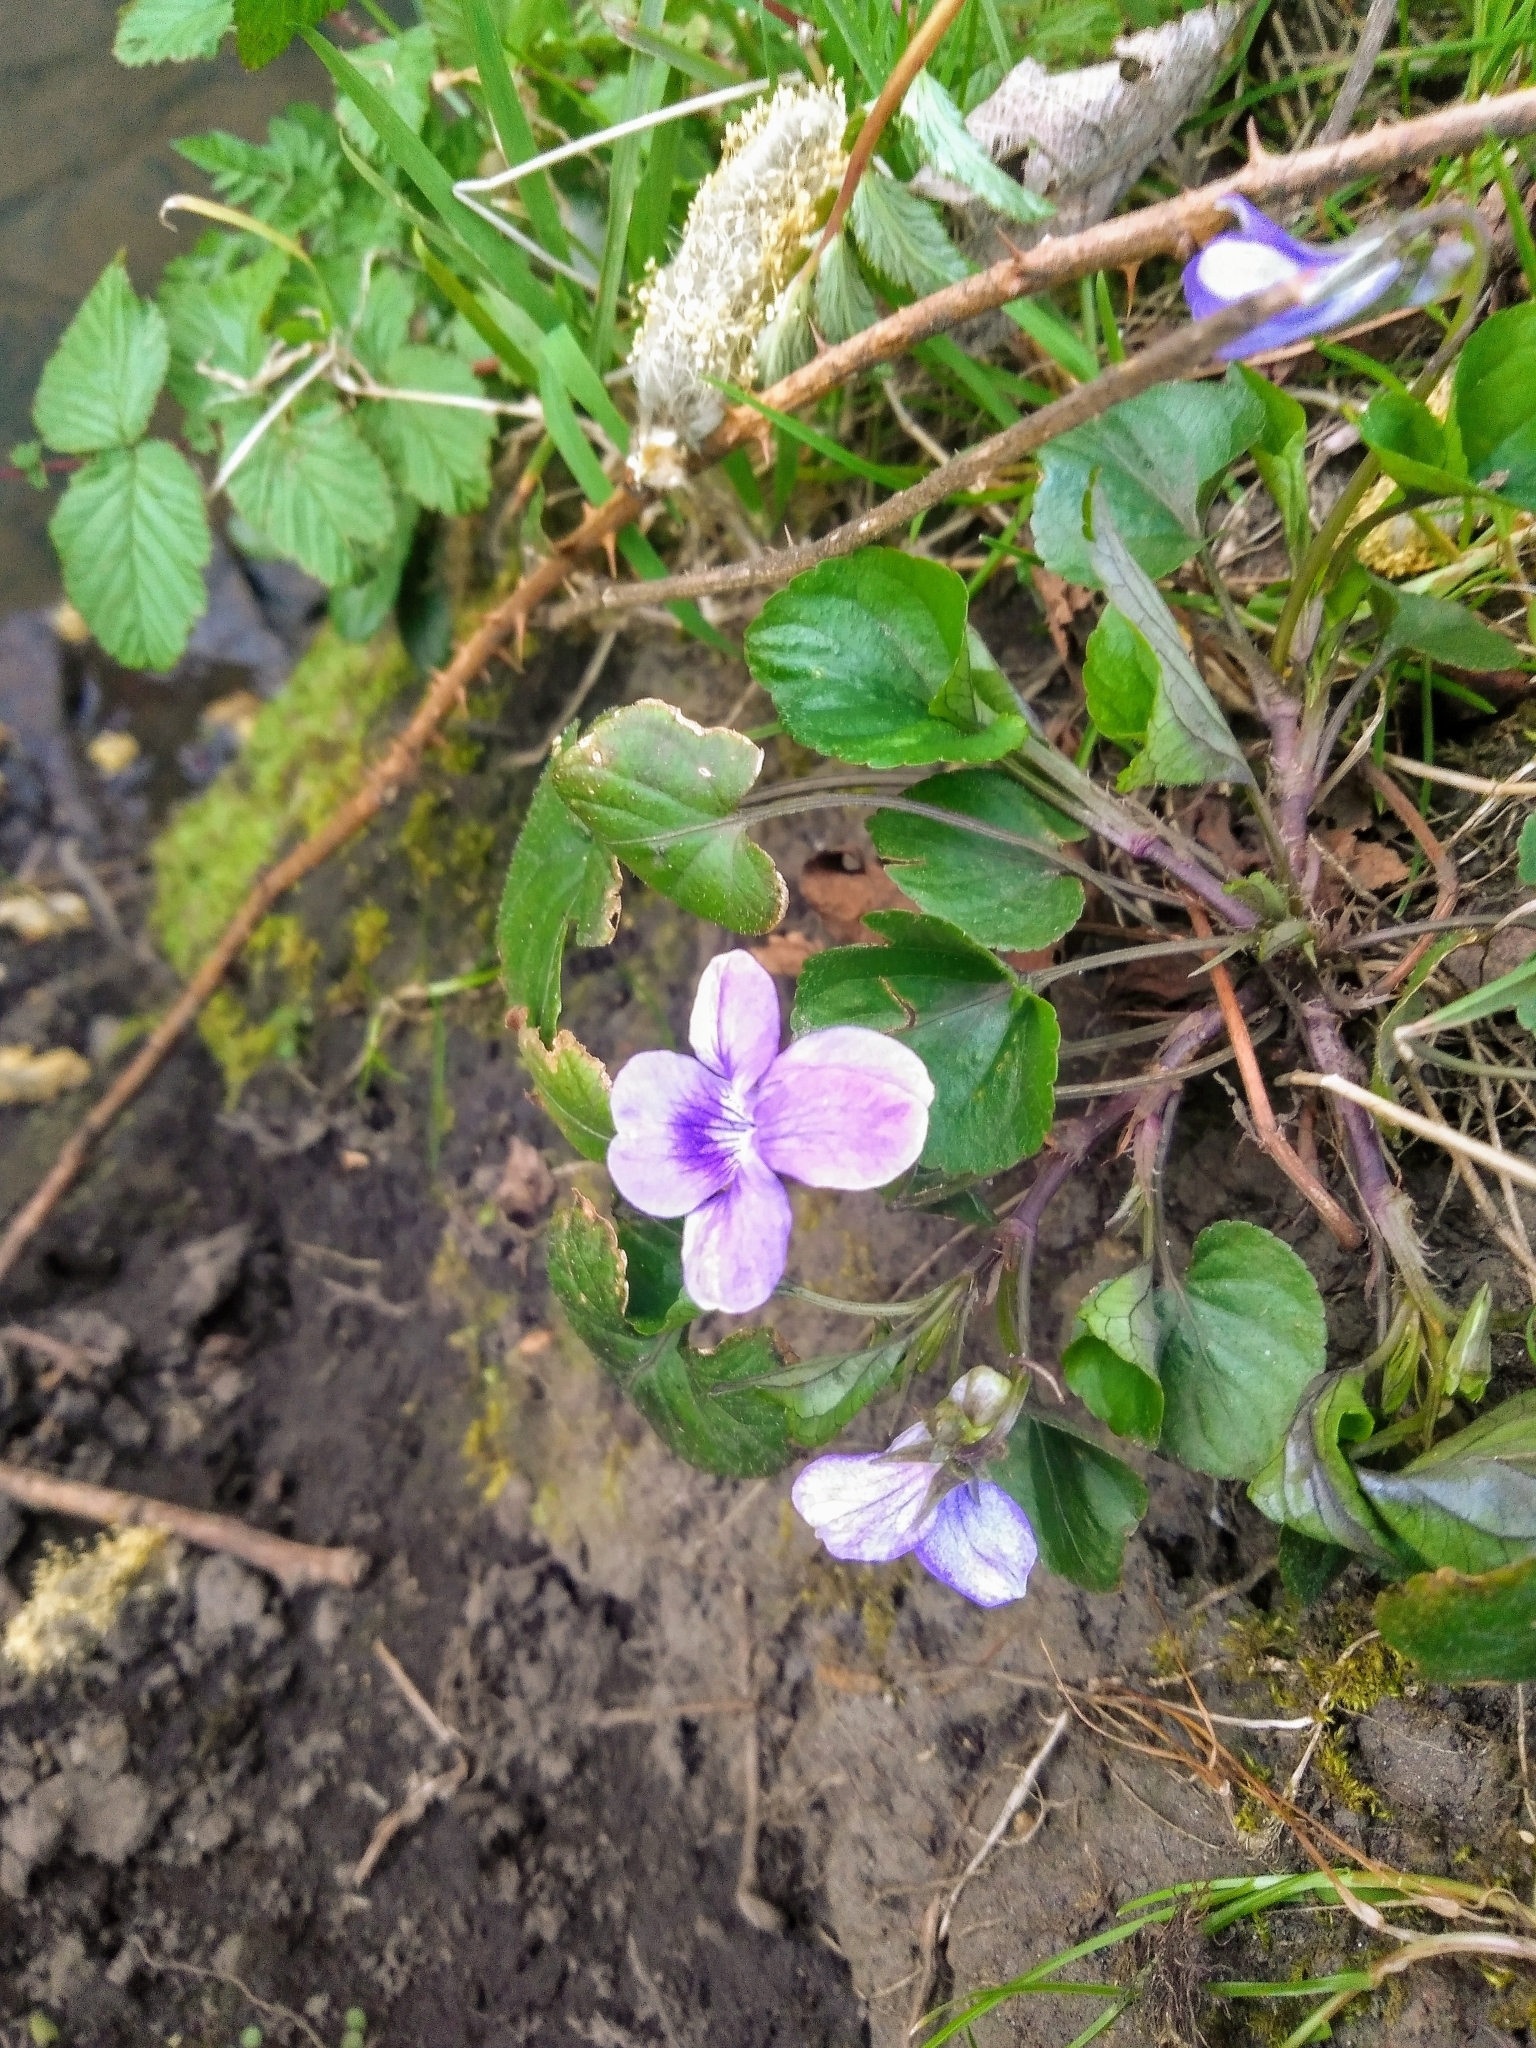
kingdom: Plantae
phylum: Tracheophyta
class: Magnoliopsida
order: Malpighiales
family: Violaceae
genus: Viola
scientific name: Viola riviniana
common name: Common dog-violet
